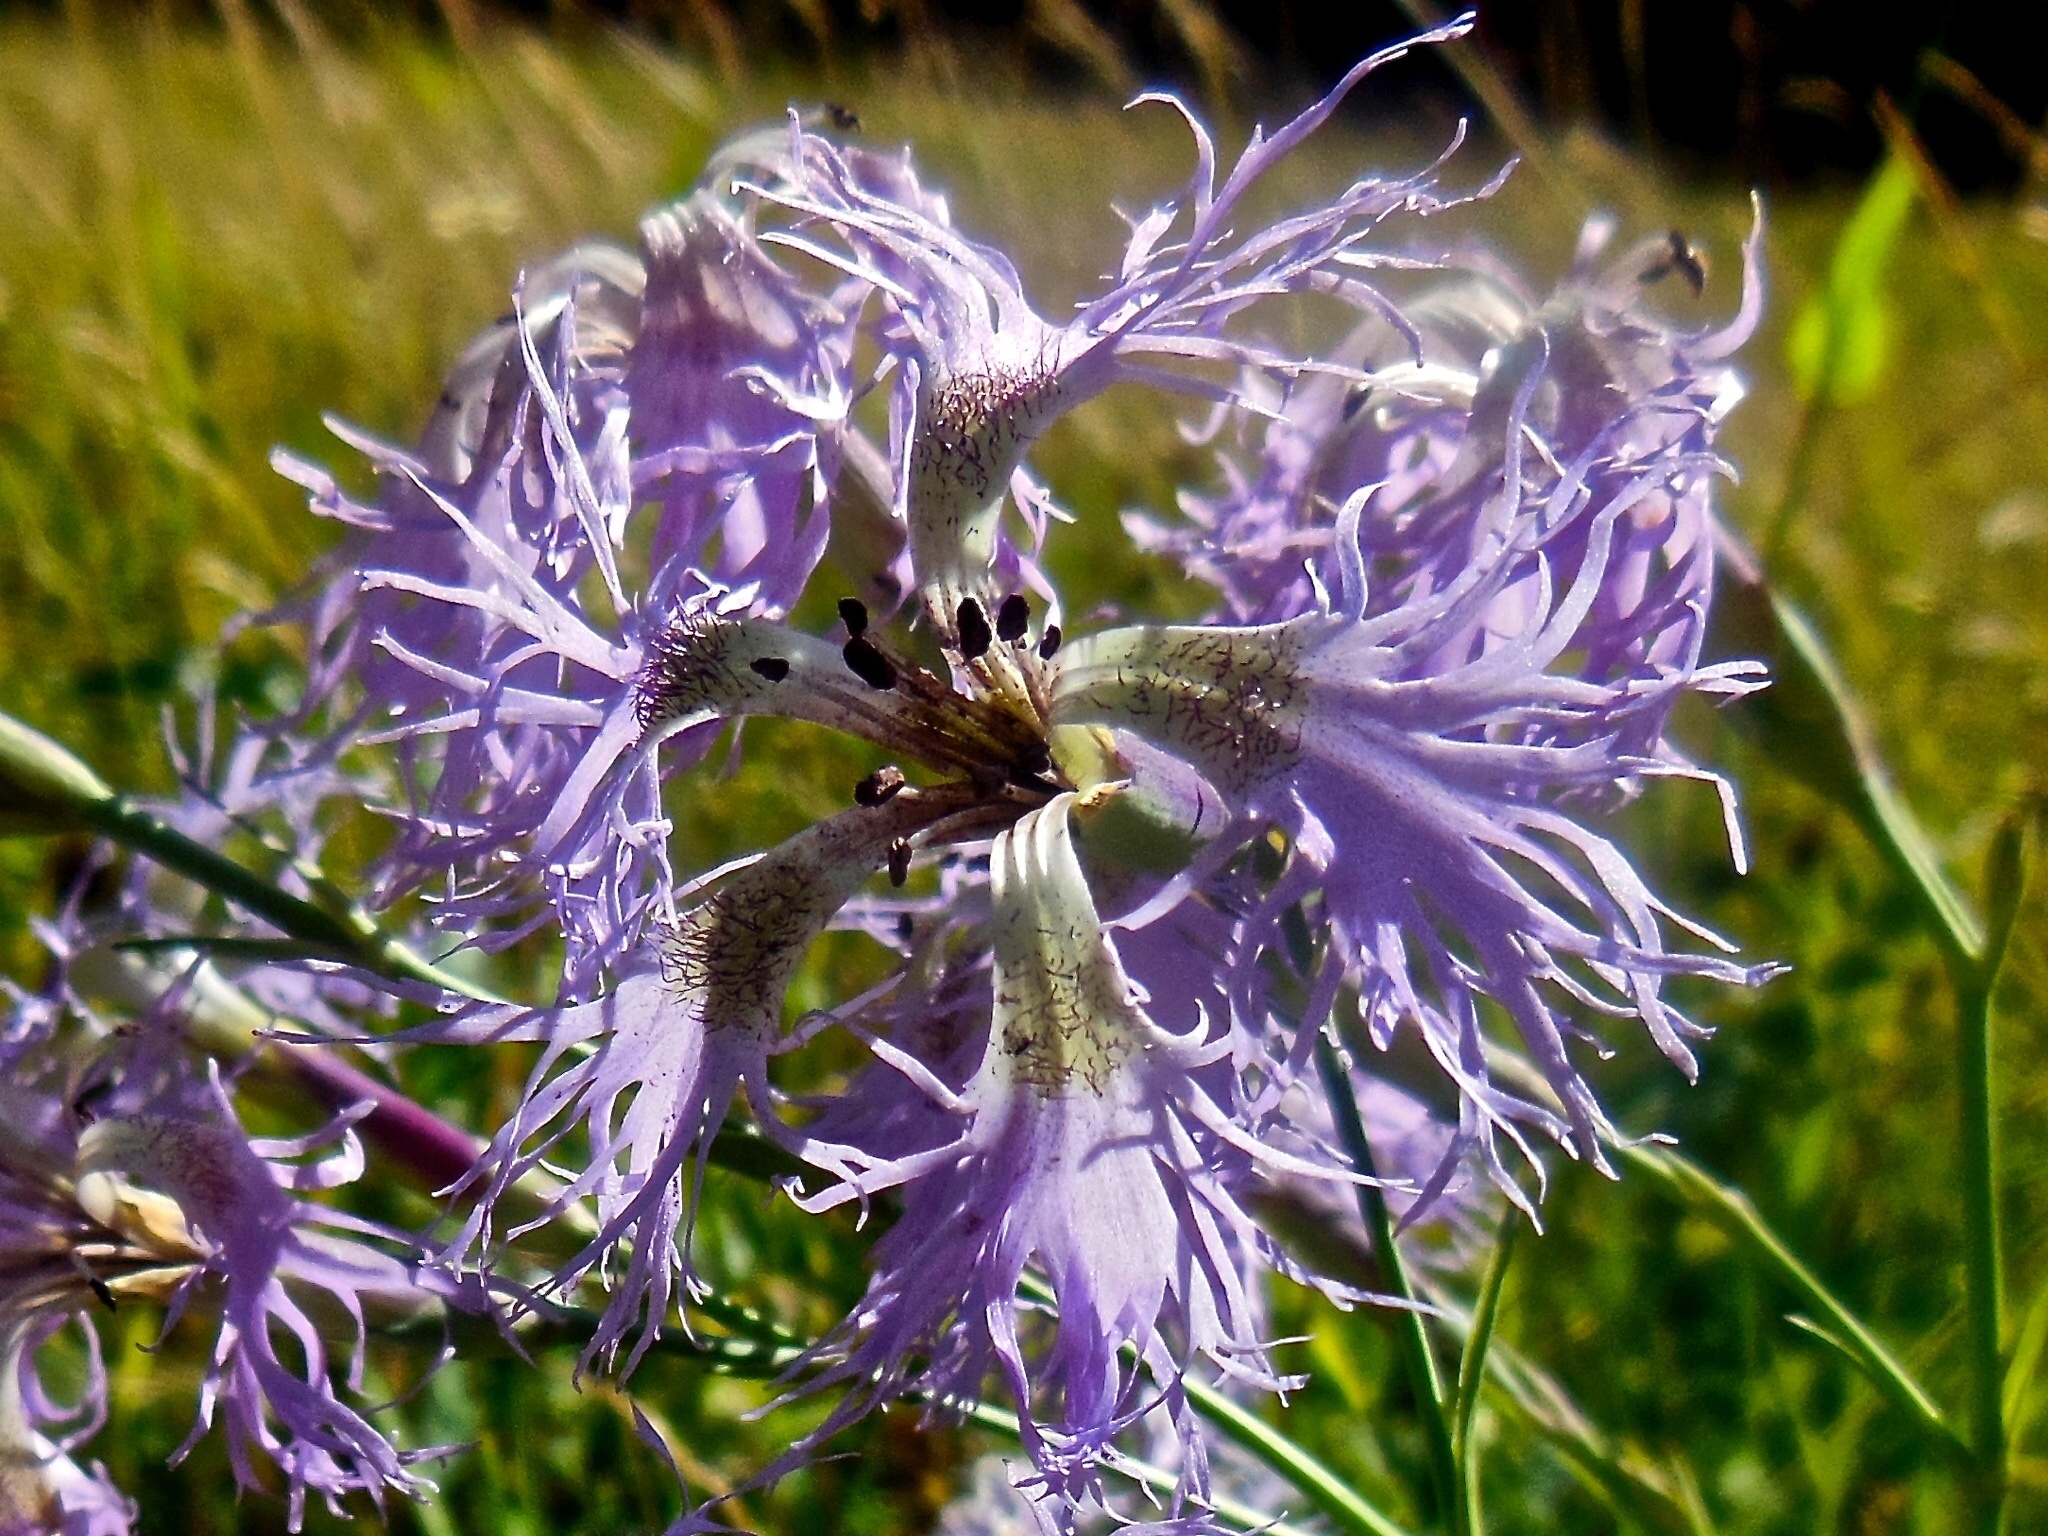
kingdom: Plantae
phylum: Tracheophyta
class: Magnoliopsida
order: Caryophyllales
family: Caryophyllaceae
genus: Dianthus
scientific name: Dianthus superbus
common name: Fringed pink
